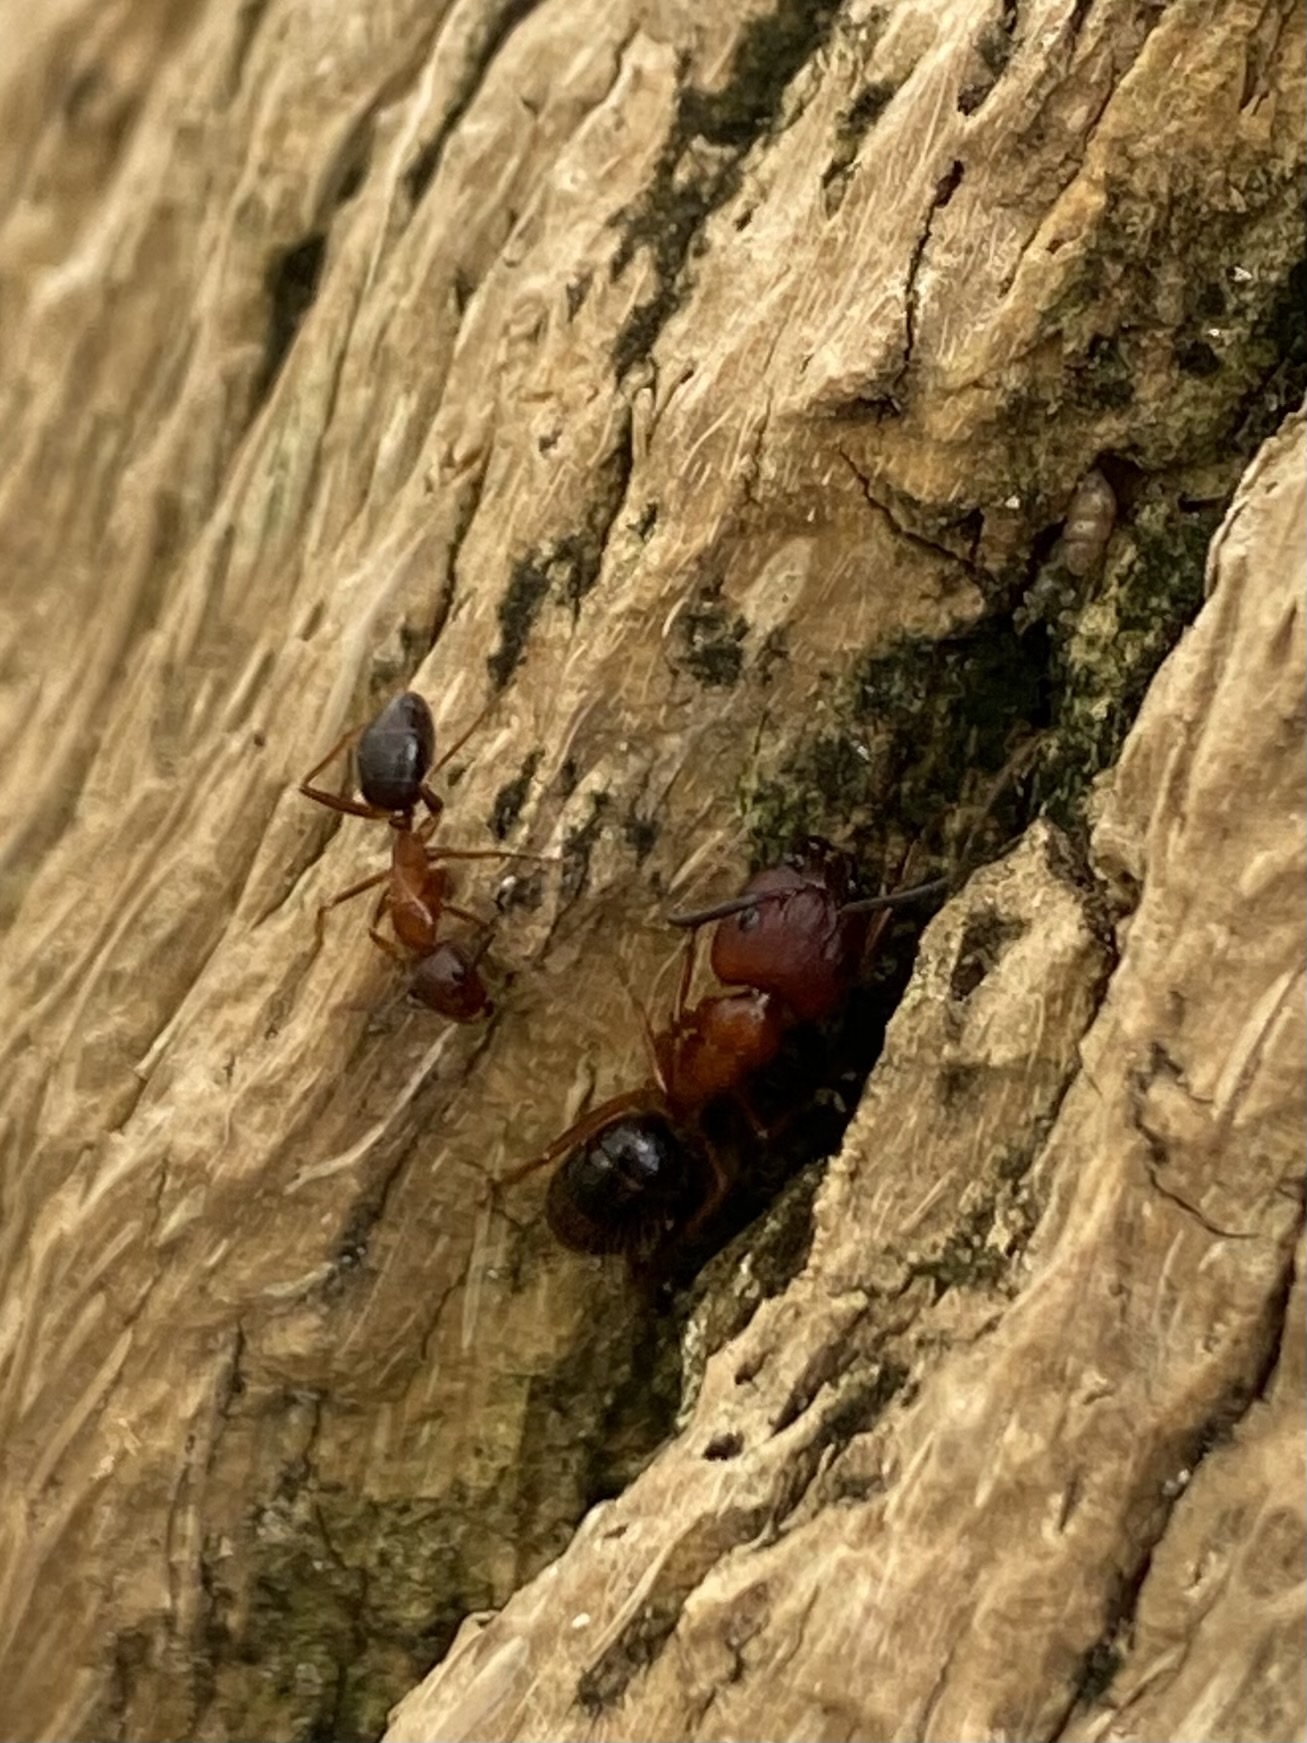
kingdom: Animalia
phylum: Arthropoda
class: Insecta
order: Hymenoptera
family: Formicidae
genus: Camponotus
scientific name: Camponotus floridanus
